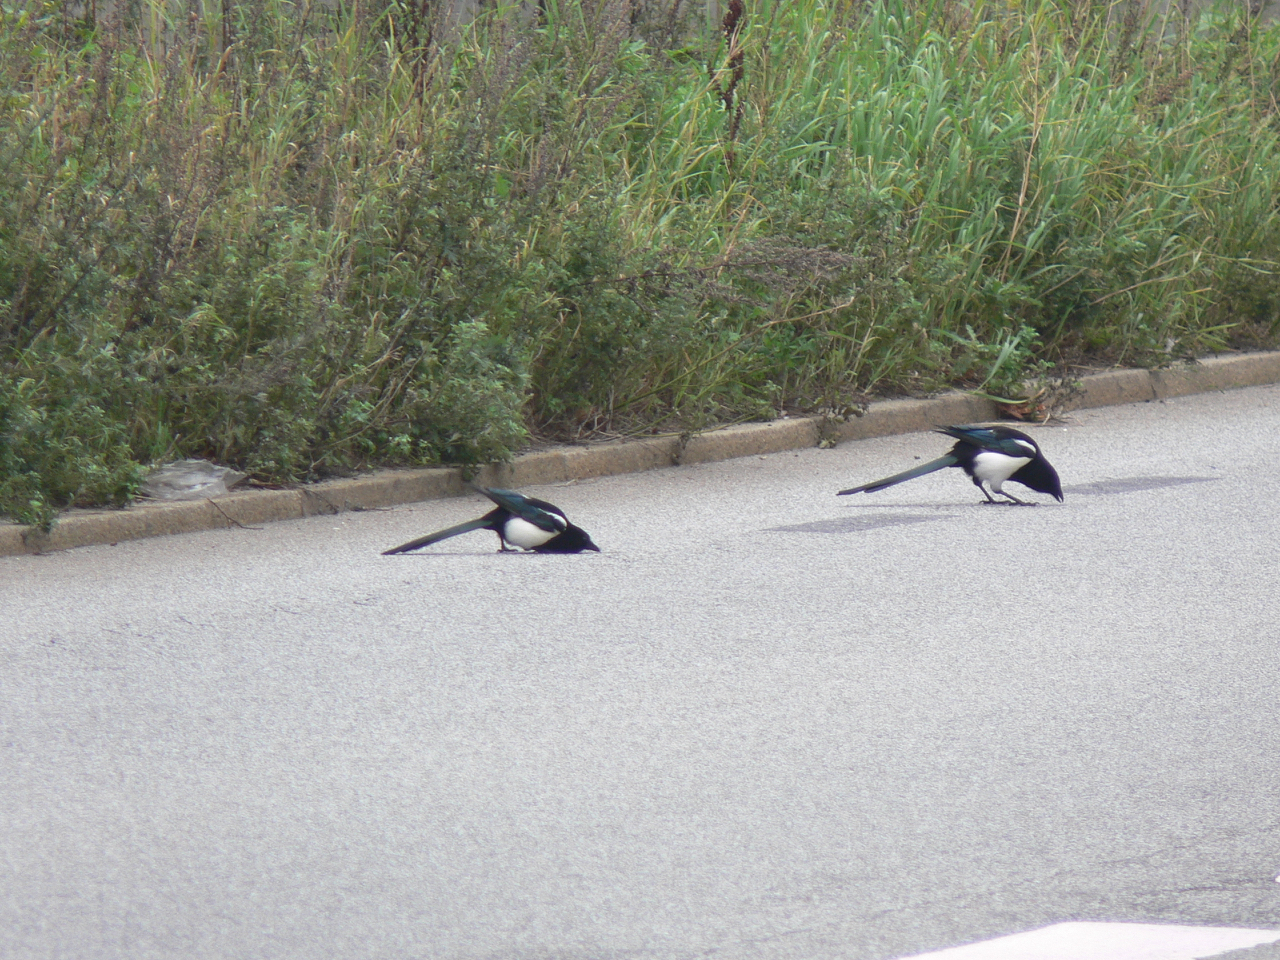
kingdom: Animalia
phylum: Chordata
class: Aves
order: Passeriformes
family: Corvidae
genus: Pica
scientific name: Pica pica
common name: Eurasian magpie
